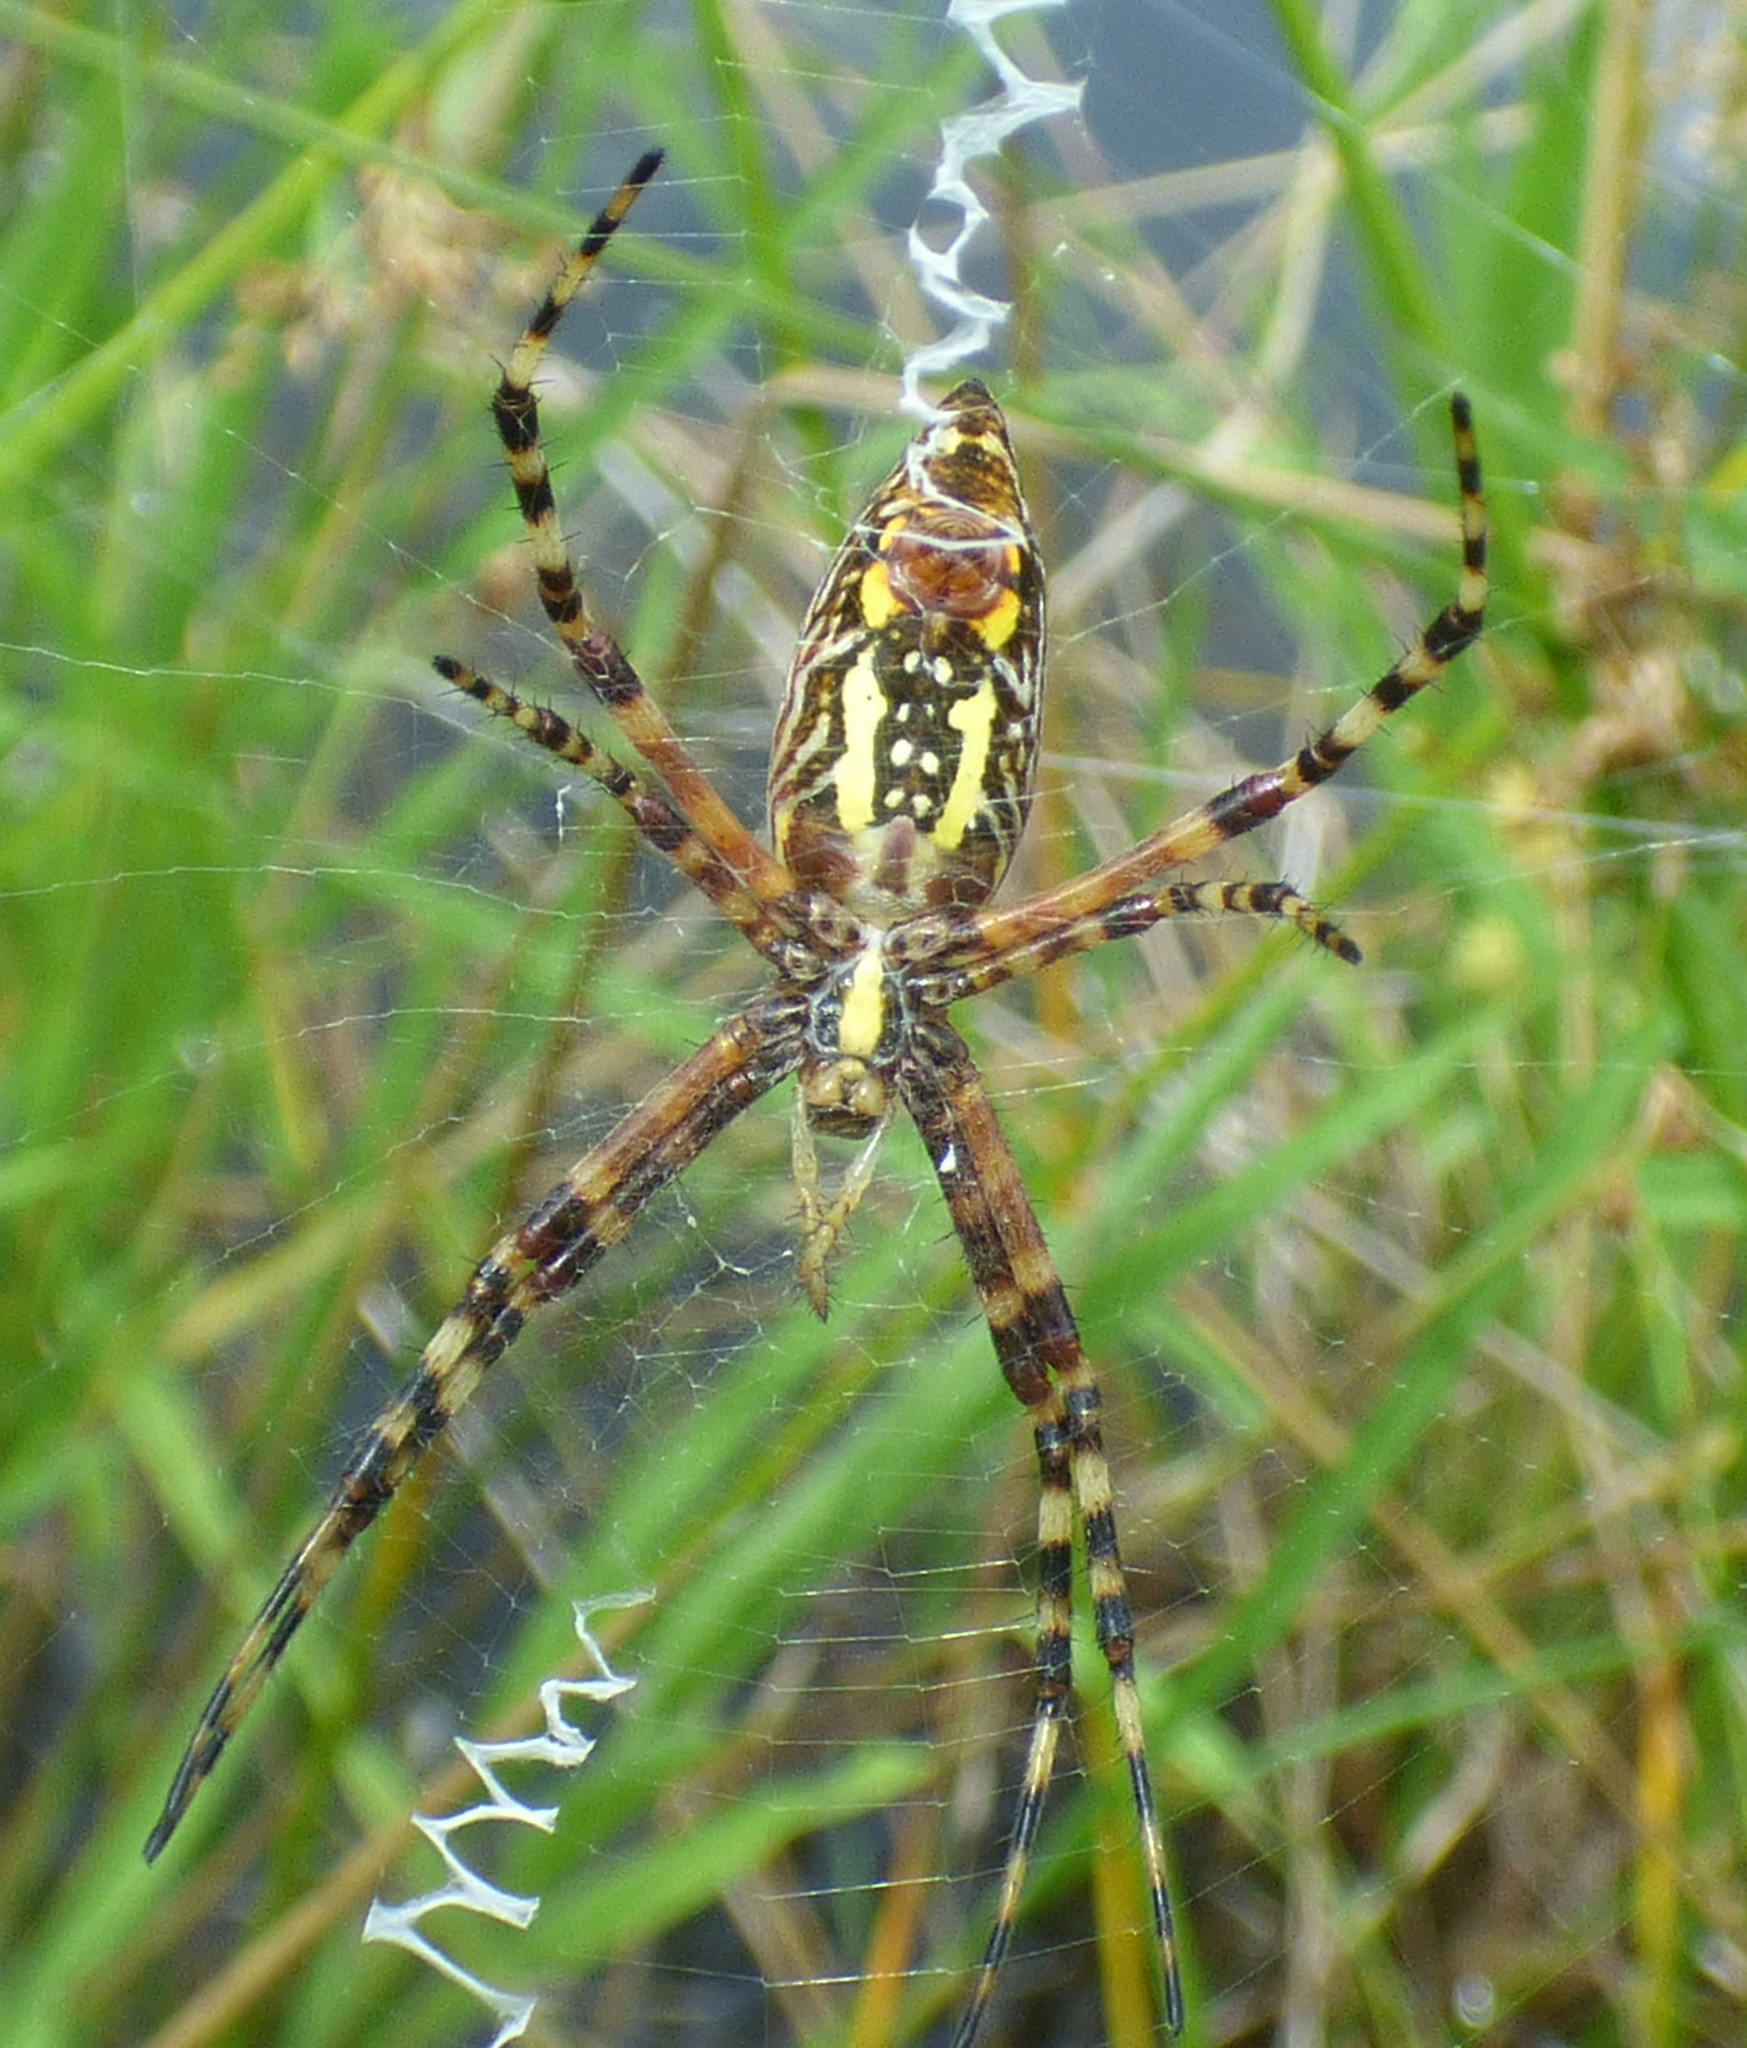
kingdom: Animalia
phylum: Arthropoda
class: Arachnida
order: Araneae
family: Araneidae
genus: Argiope
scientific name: Argiope aurantia
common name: Orb weavers
